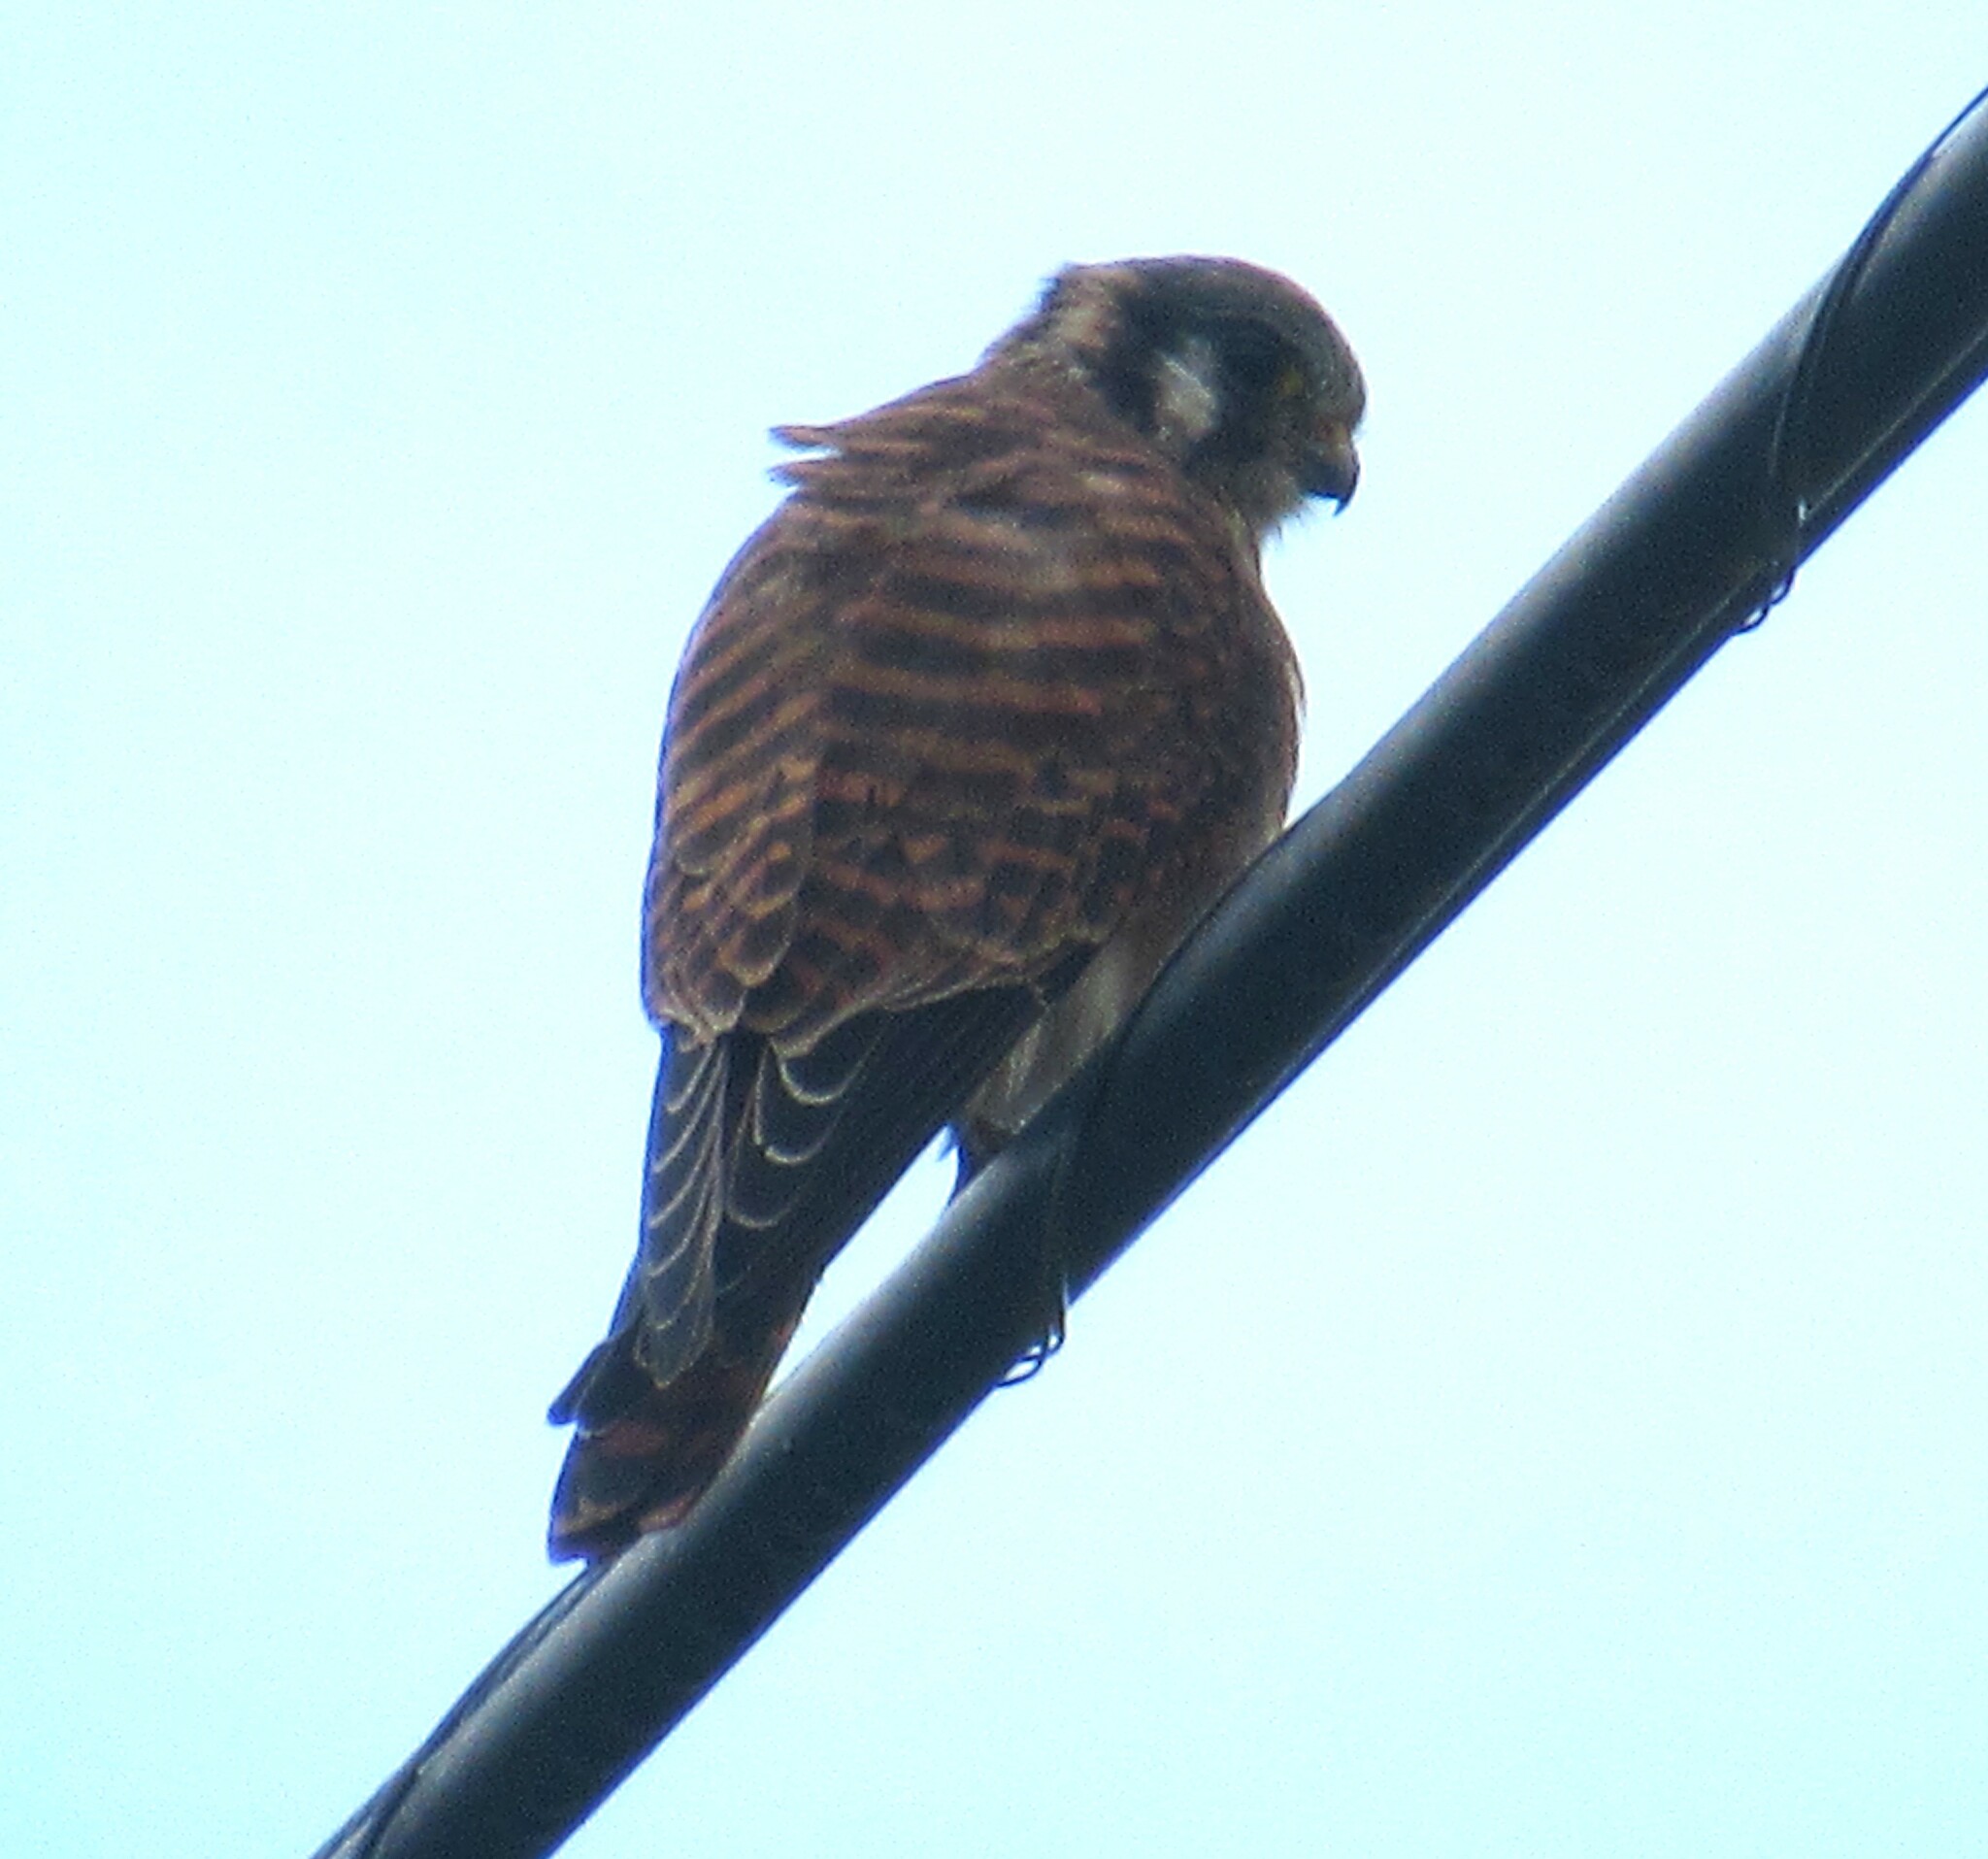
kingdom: Animalia
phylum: Chordata
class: Aves
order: Falconiformes
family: Falconidae
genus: Falco
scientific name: Falco sparverius
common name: American kestrel
